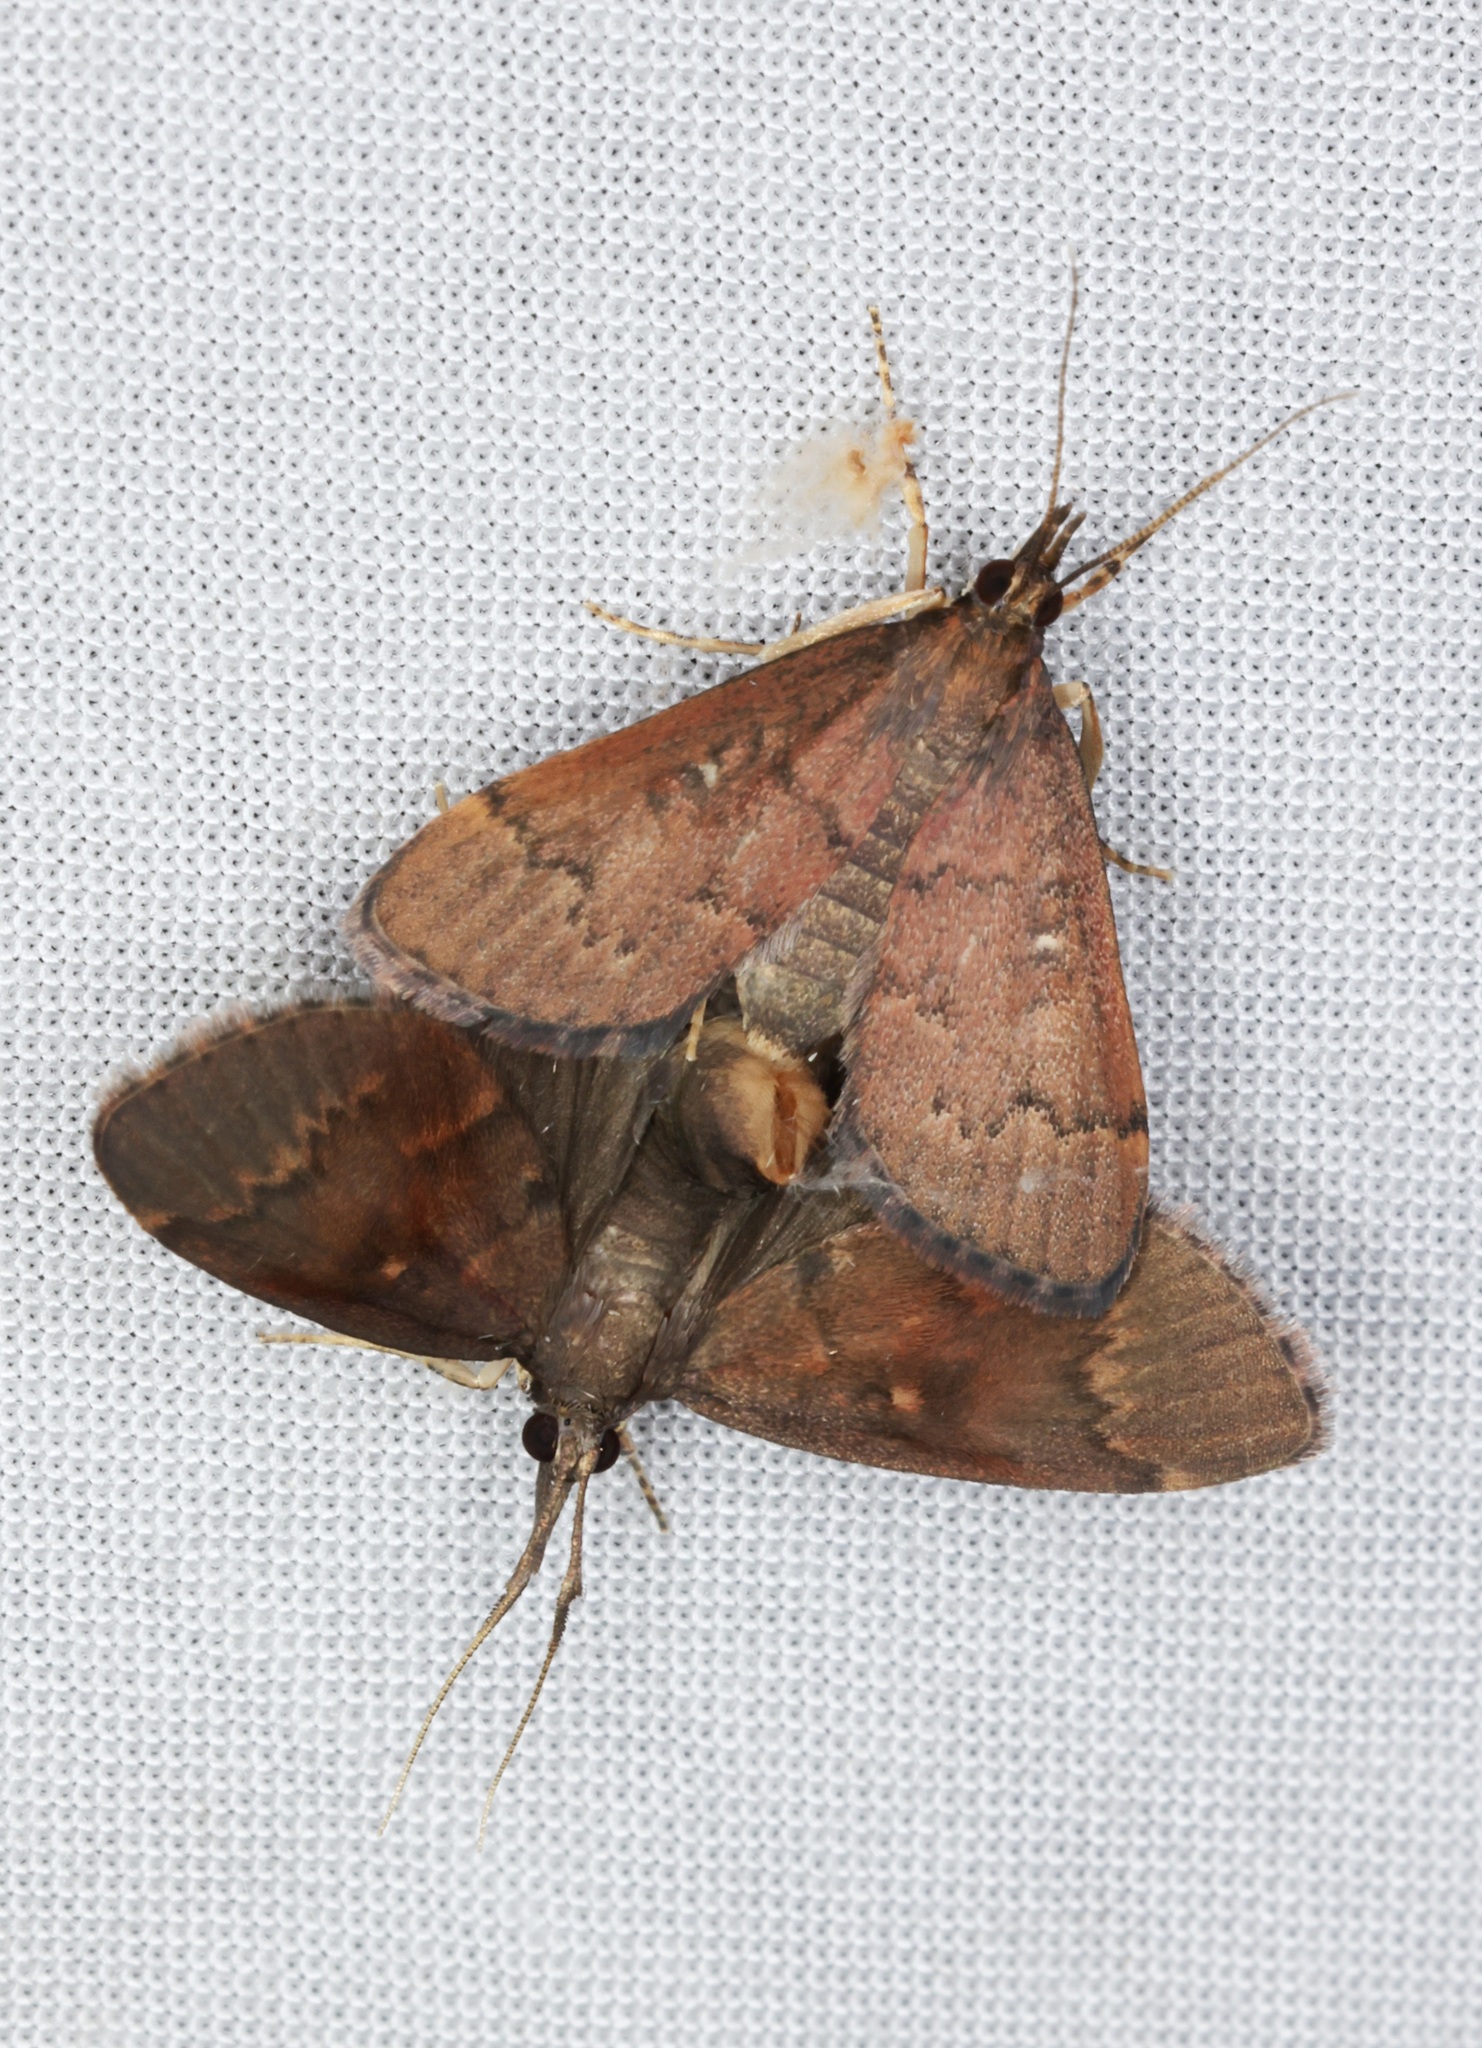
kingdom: Animalia
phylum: Arthropoda
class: Insecta
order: Lepidoptera
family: Crambidae
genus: Camptomastix
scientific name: Camptomastix hisbonalis
